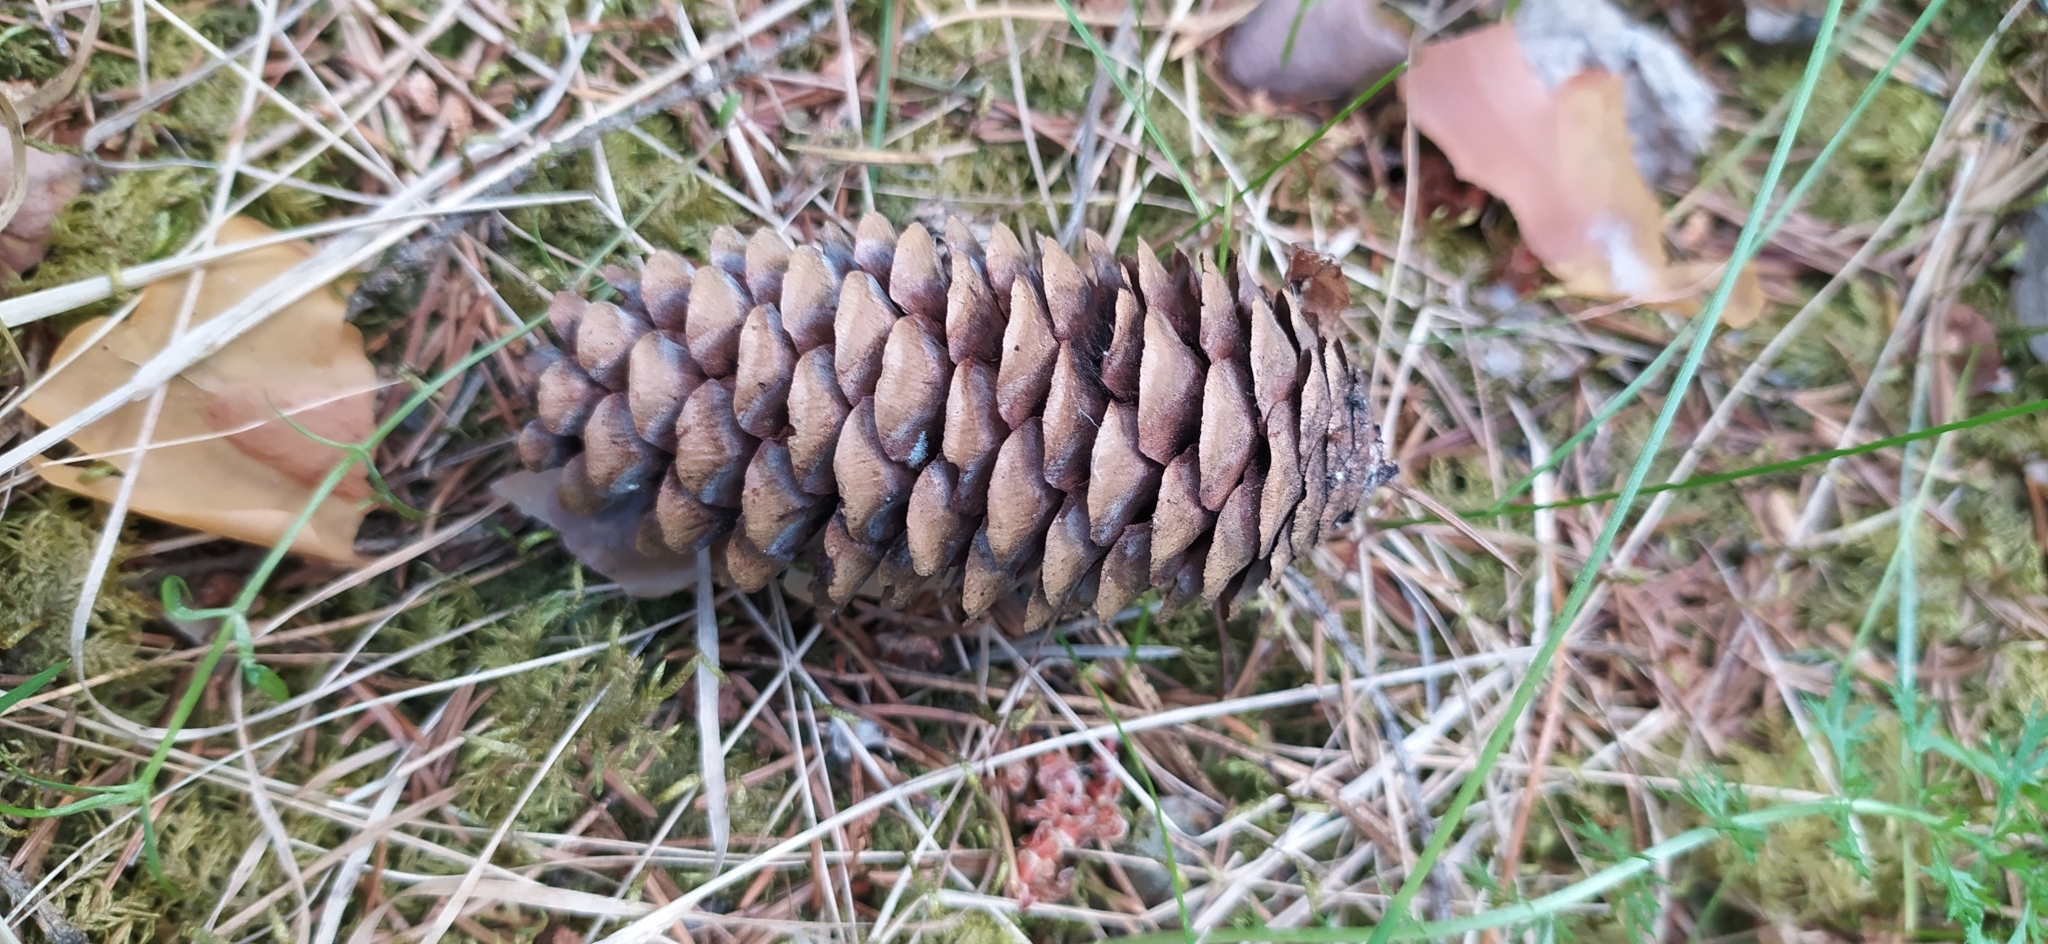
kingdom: Plantae
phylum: Tracheophyta
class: Pinopsida
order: Pinales
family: Pinaceae
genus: Picea
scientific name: Picea obovata
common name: Siberian spruce
